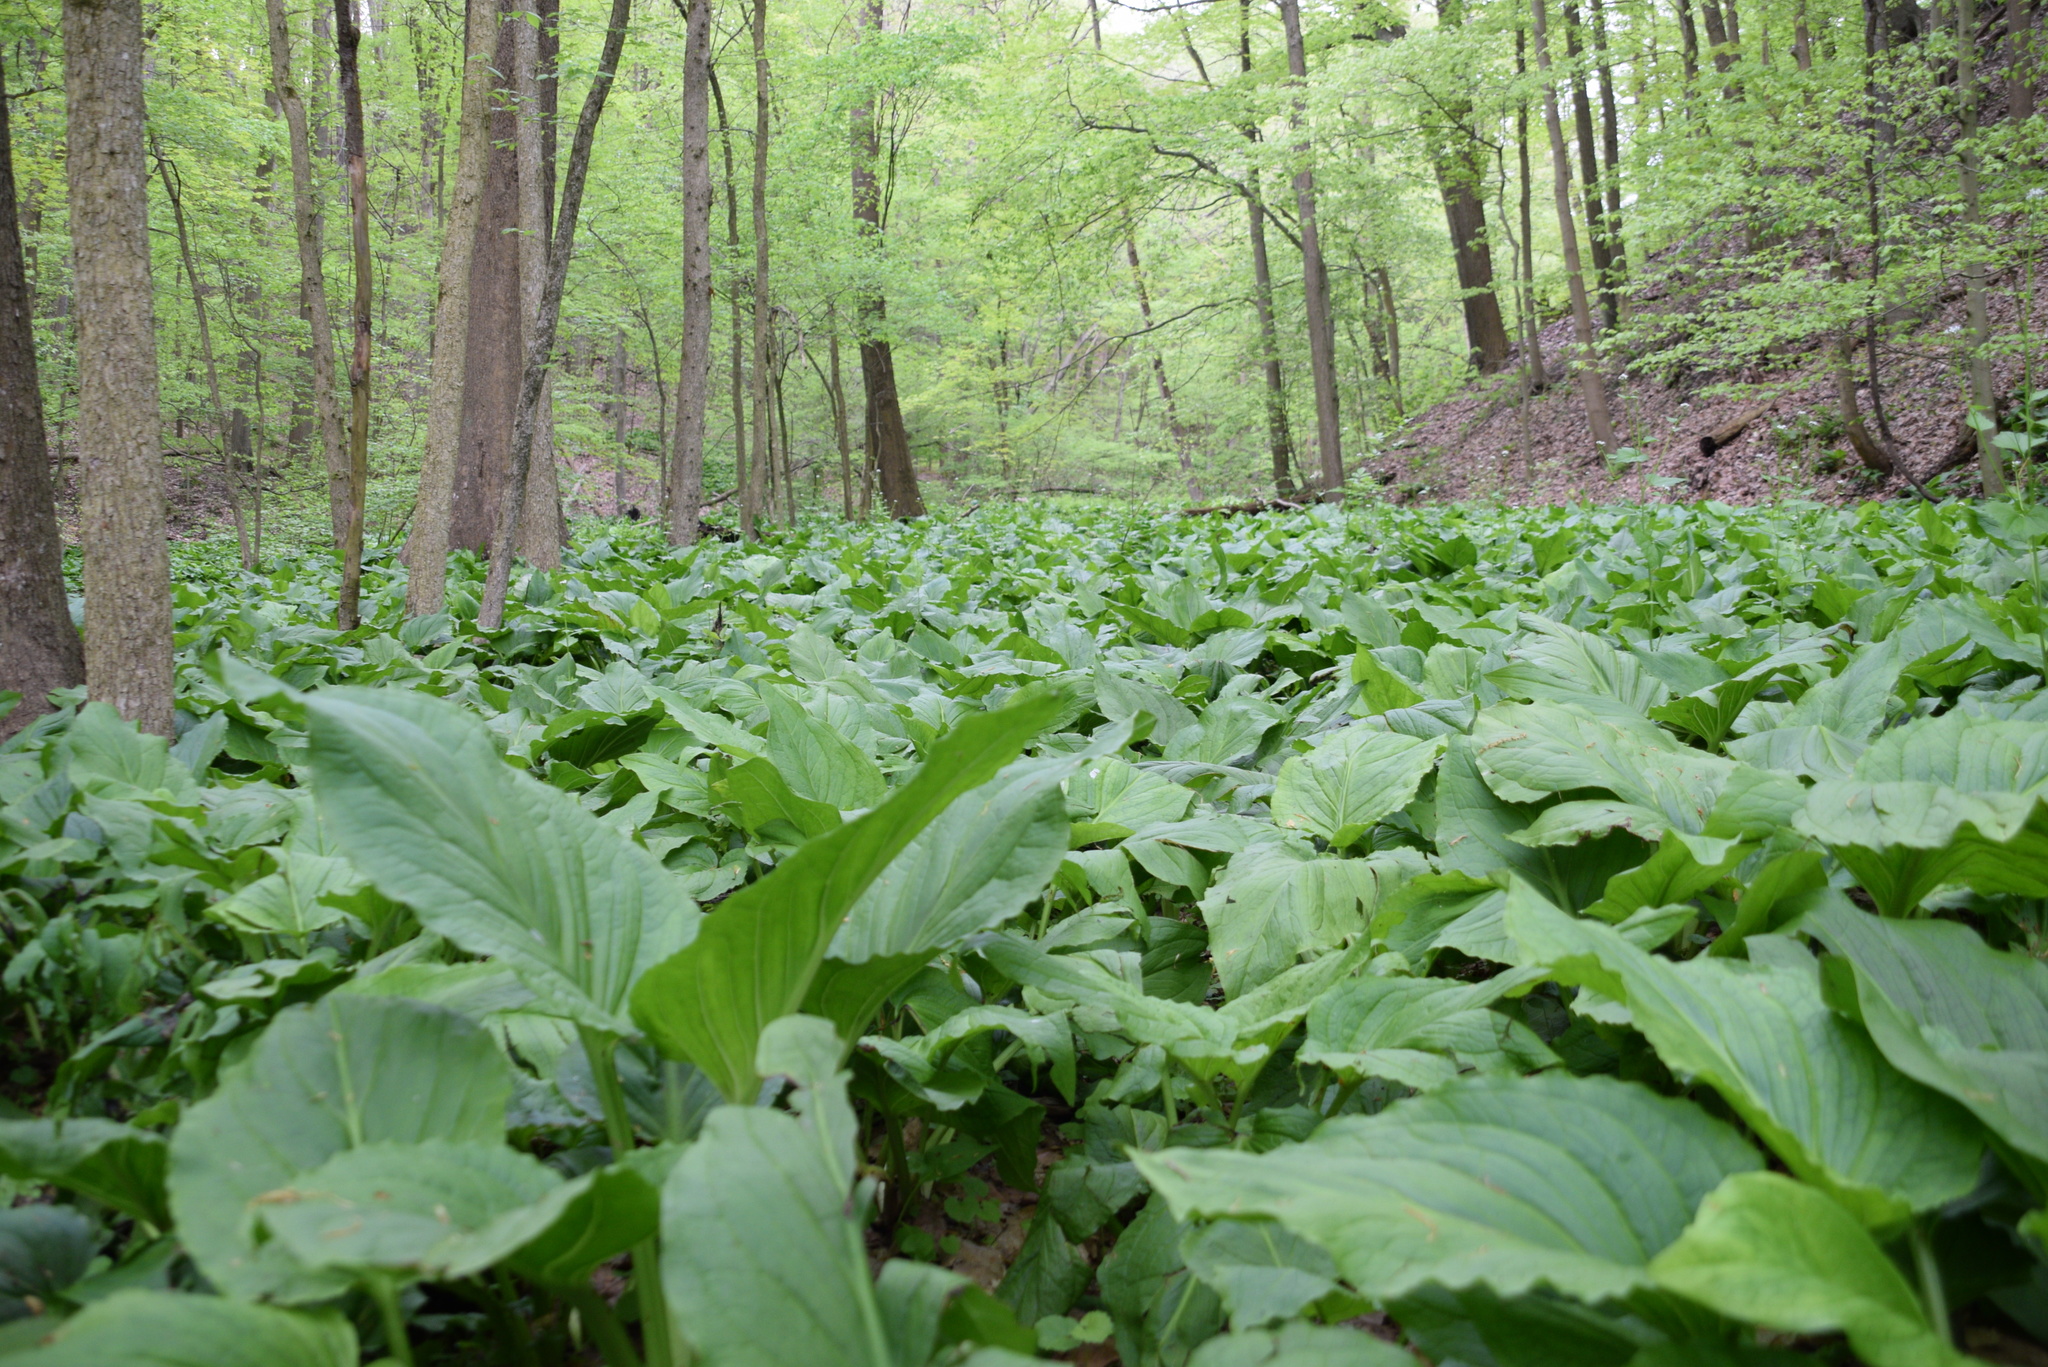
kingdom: Plantae
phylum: Tracheophyta
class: Liliopsida
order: Alismatales
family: Araceae
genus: Symplocarpus
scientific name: Symplocarpus foetidus
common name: Eastern skunk cabbage
